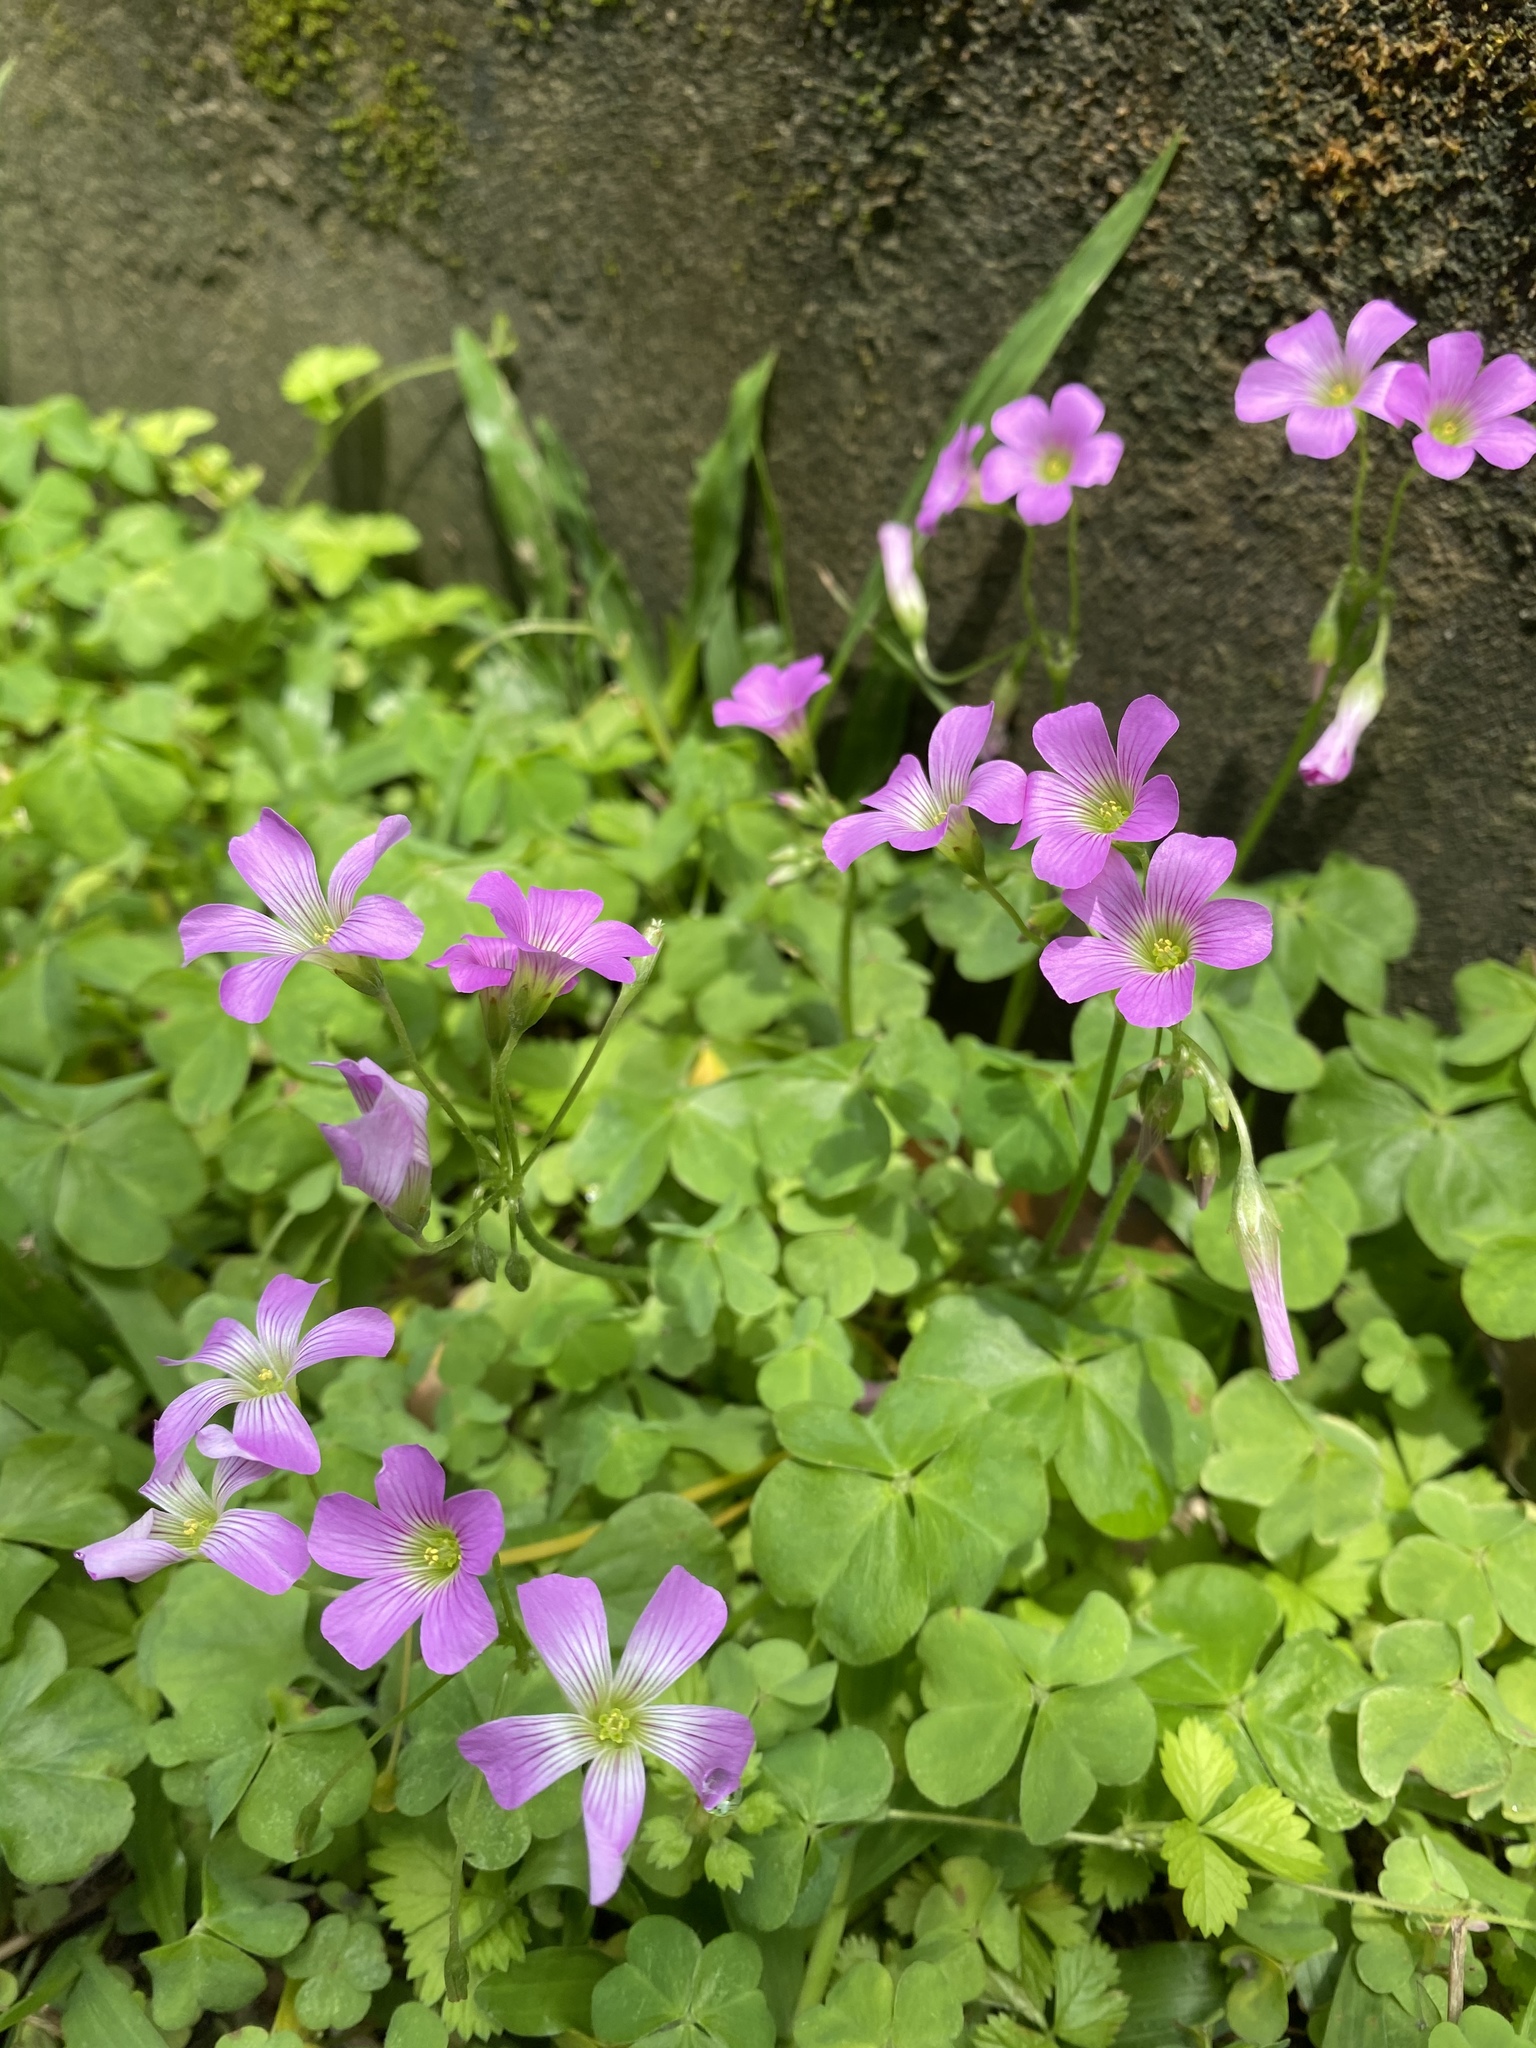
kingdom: Plantae
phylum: Tracheophyta
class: Magnoliopsida
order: Oxalidales
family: Oxalidaceae
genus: Oxalis
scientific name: Oxalis debilis
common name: Large-flowered pink-sorrel
